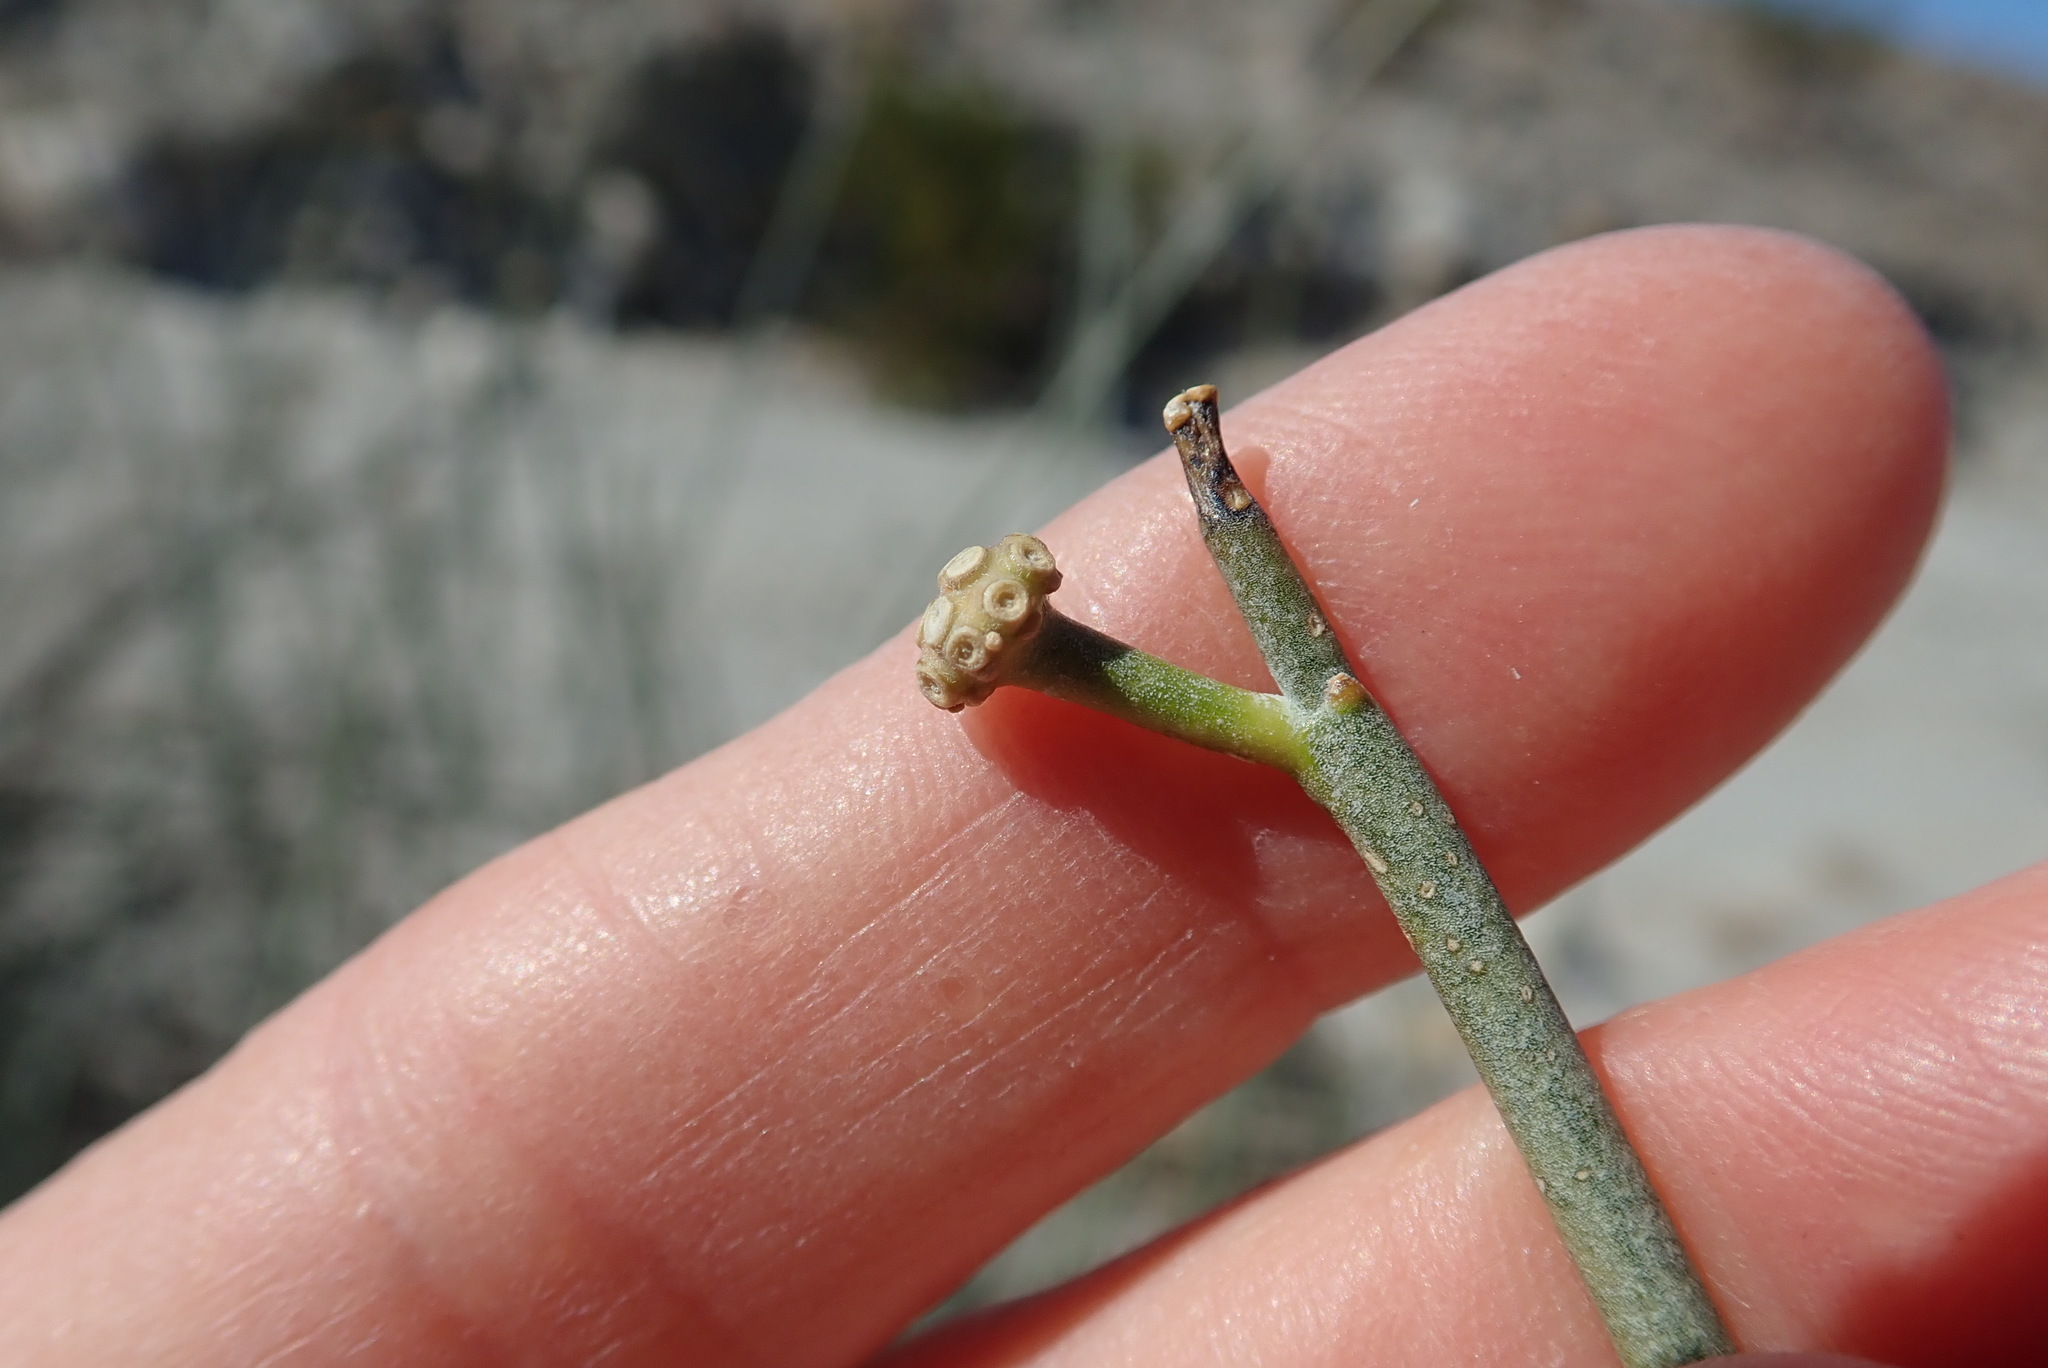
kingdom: Plantae
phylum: Tracheophyta
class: Magnoliopsida
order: Gentianales
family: Apocynaceae
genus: Asclepias
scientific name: Asclepias subulata
